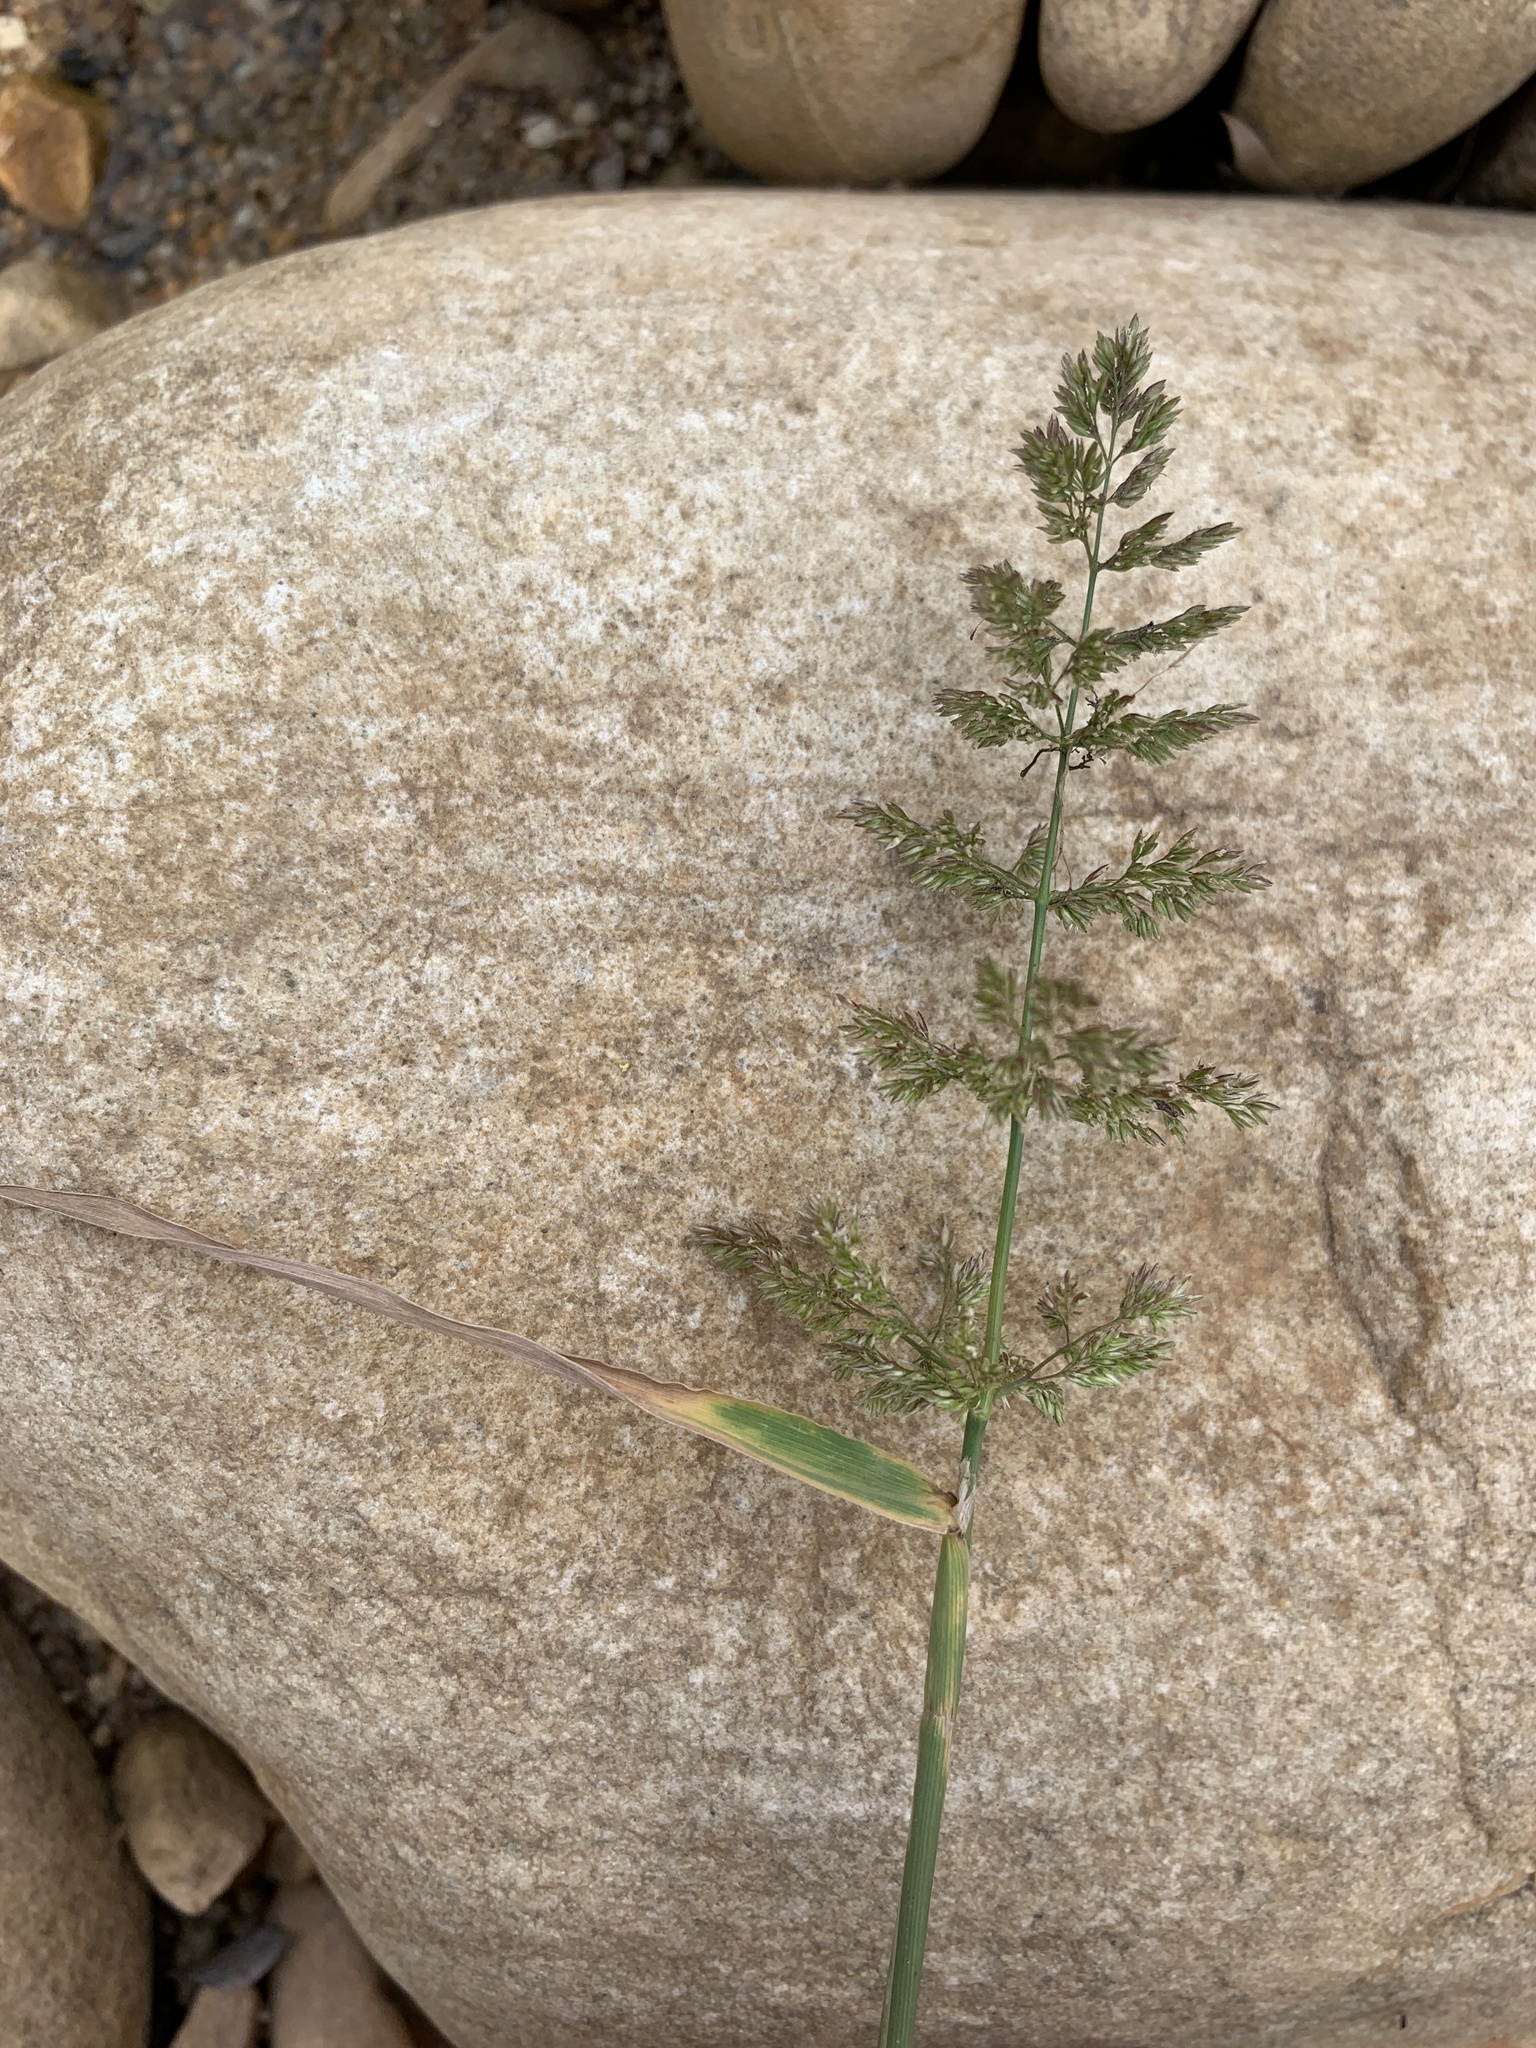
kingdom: Plantae
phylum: Tracheophyta
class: Liliopsida
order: Poales
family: Poaceae
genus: Polypogon
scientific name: Polypogon viridis
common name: Water bent
